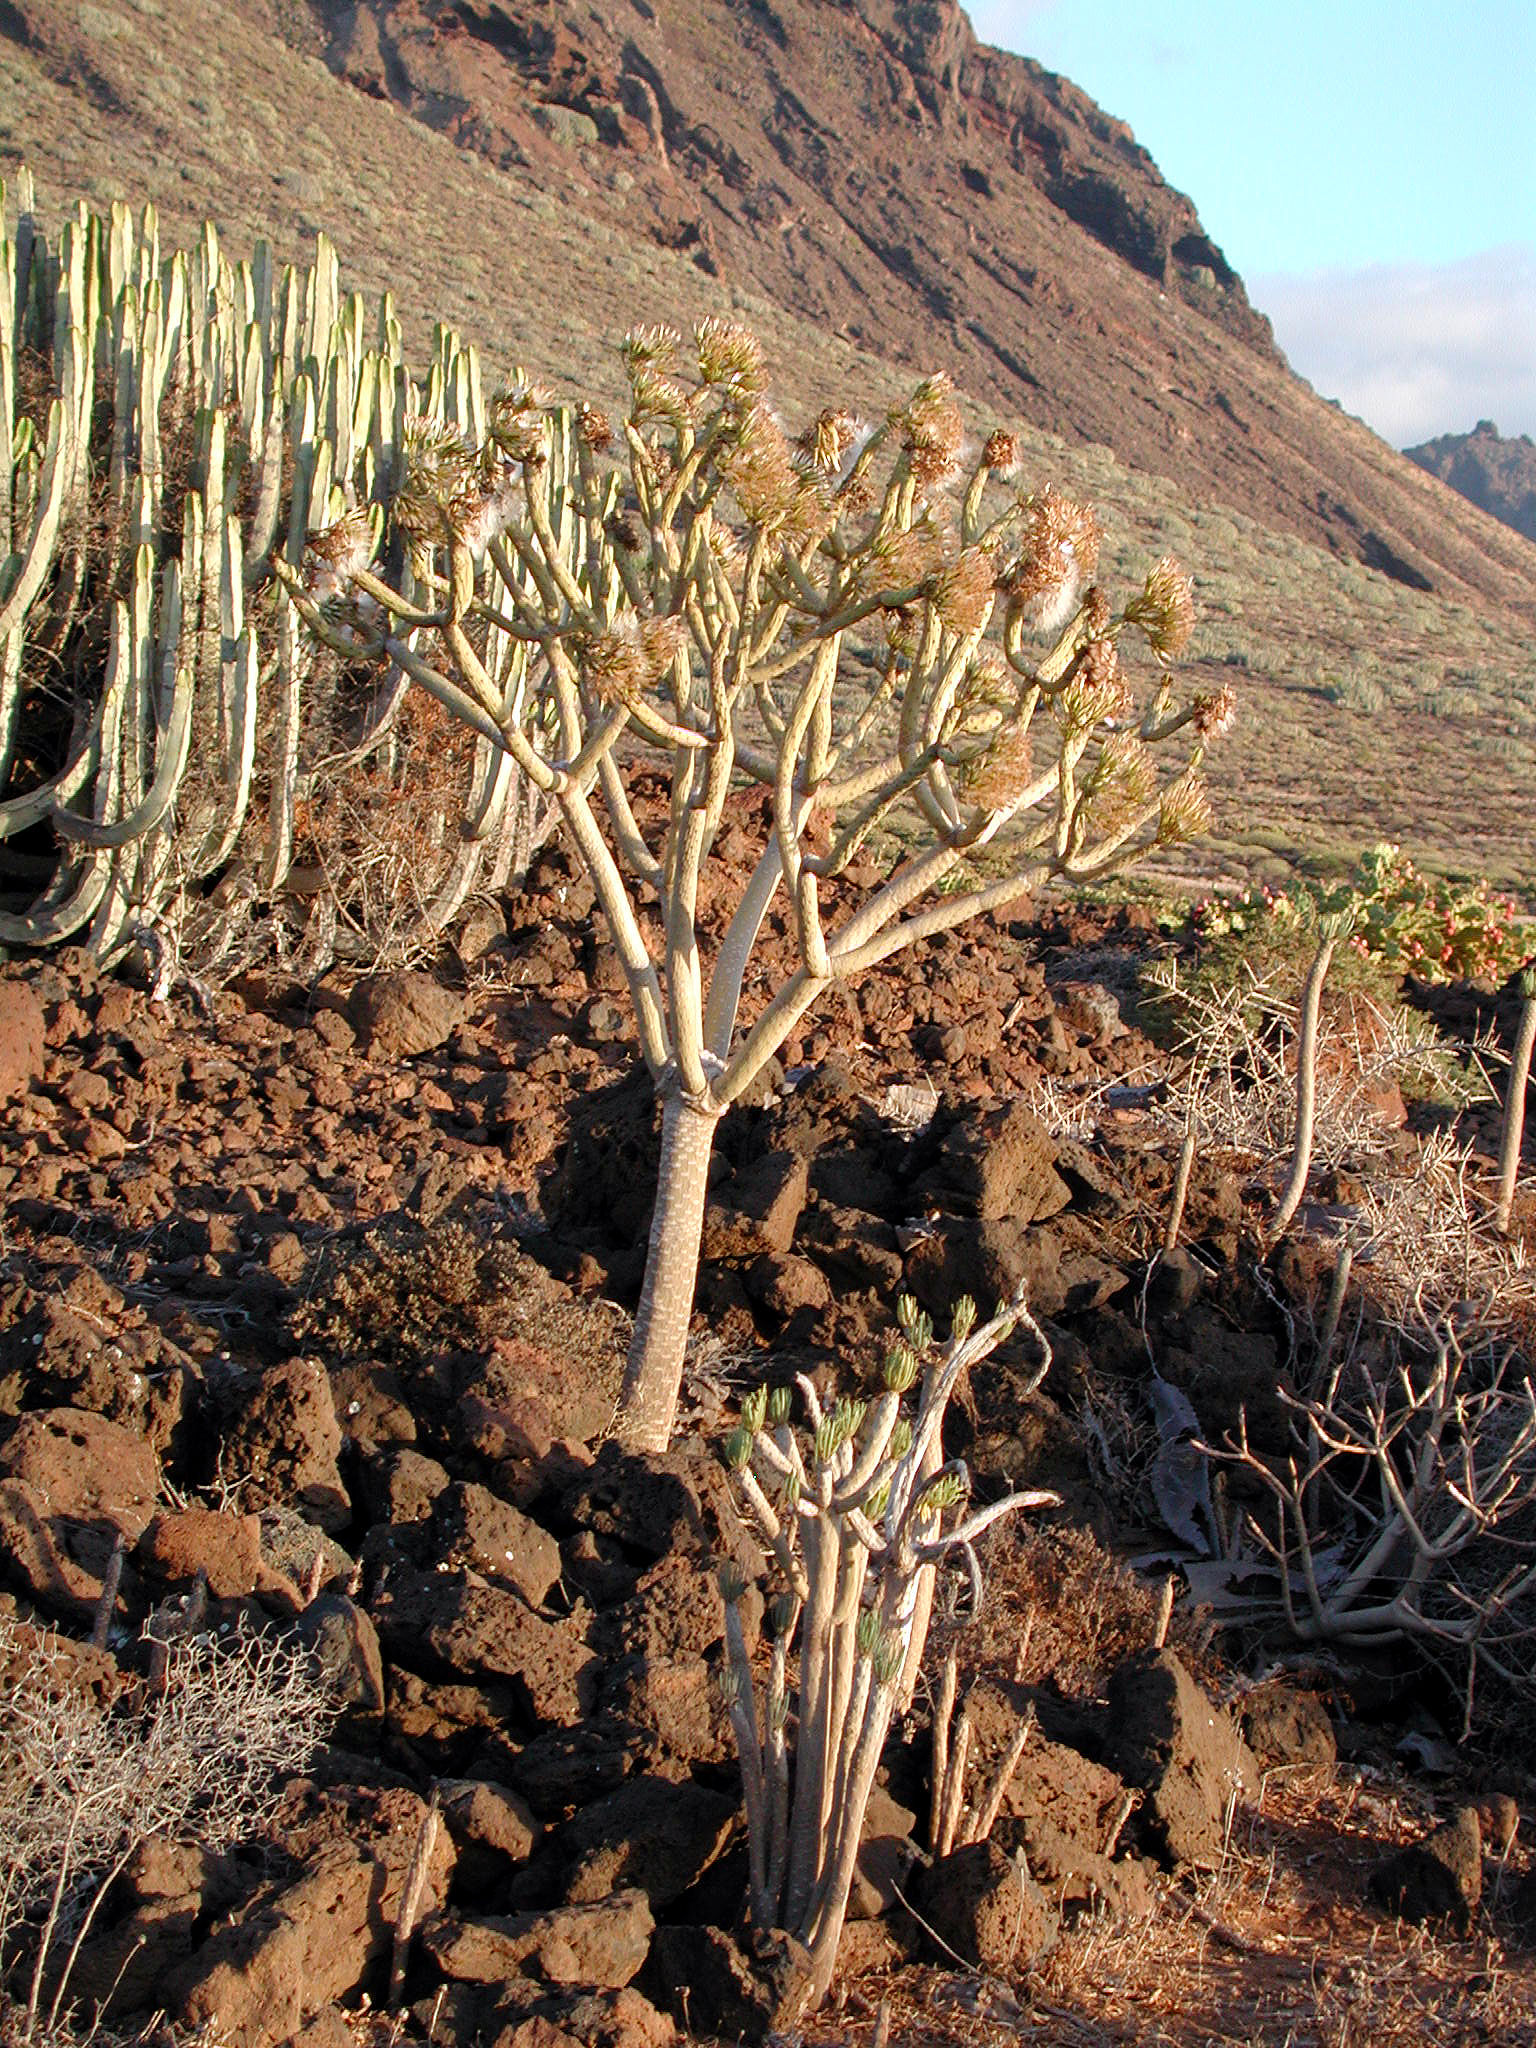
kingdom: Plantae
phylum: Tracheophyta
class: Magnoliopsida
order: Asterales
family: Asteraceae
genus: Kleinia
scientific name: Kleinia neriifolia
